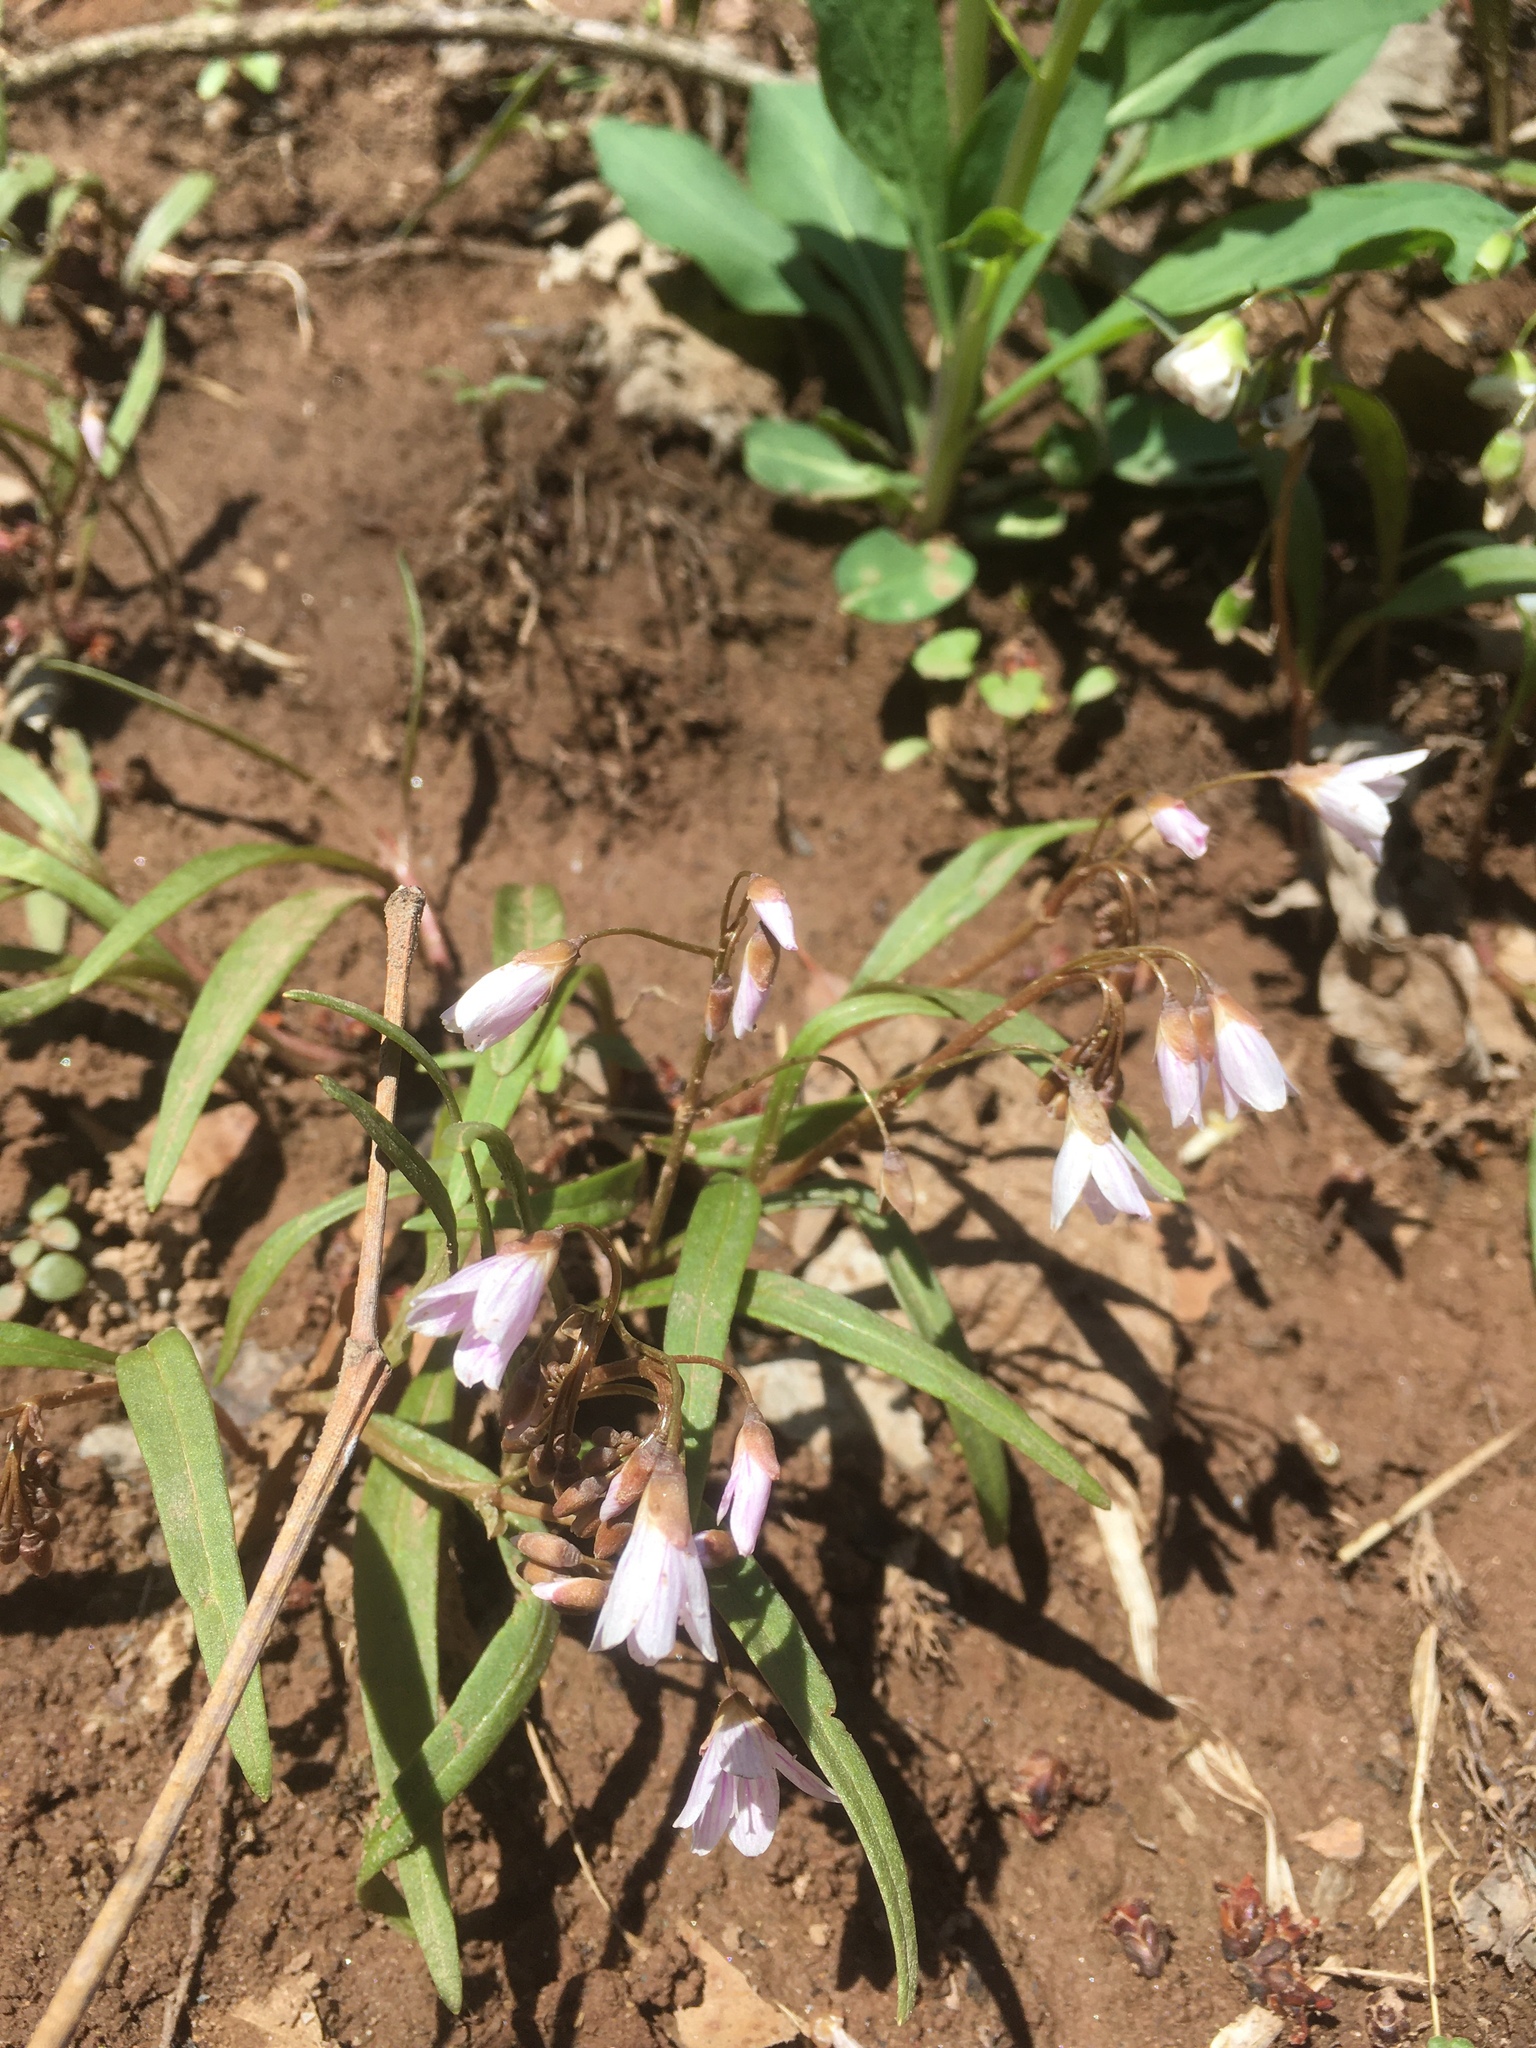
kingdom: Plantae
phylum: Tracheophyta
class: Magnoliopsida
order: Caryophyllales
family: Montiaceae
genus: Claytonia
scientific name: Claytonia virginica
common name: Virginia springbeauty
